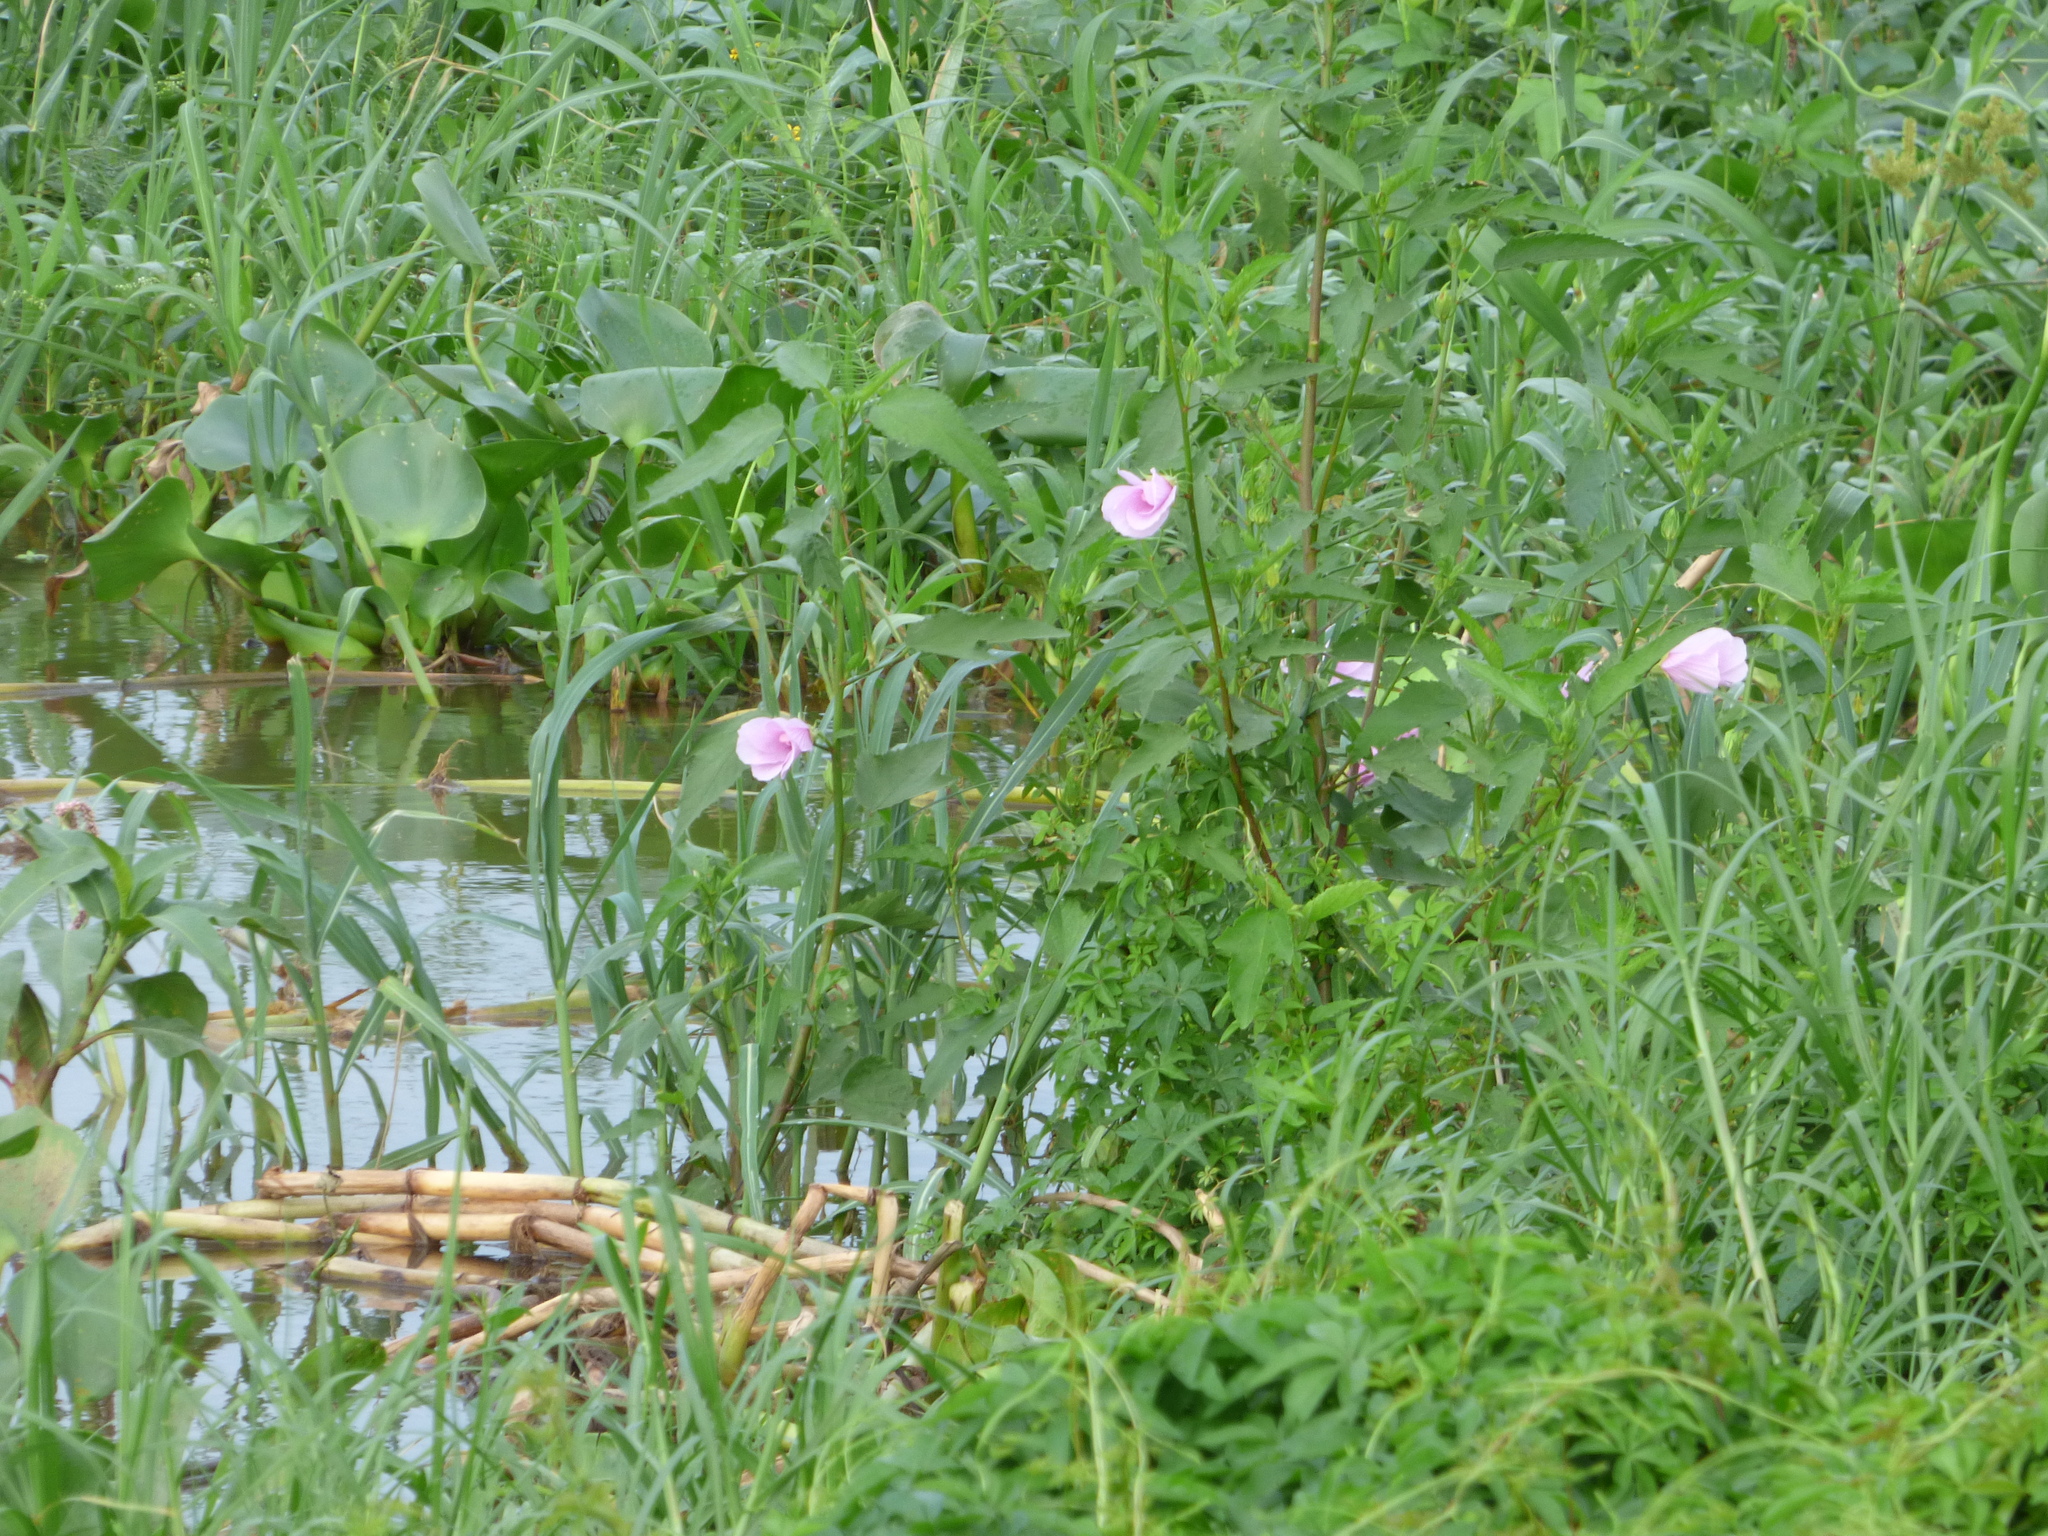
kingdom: Plantae
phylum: Tracheophyta
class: Magnoliopsida
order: Malvales
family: Malvaceae
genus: Hibiscus
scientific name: Hibiscus striatus
